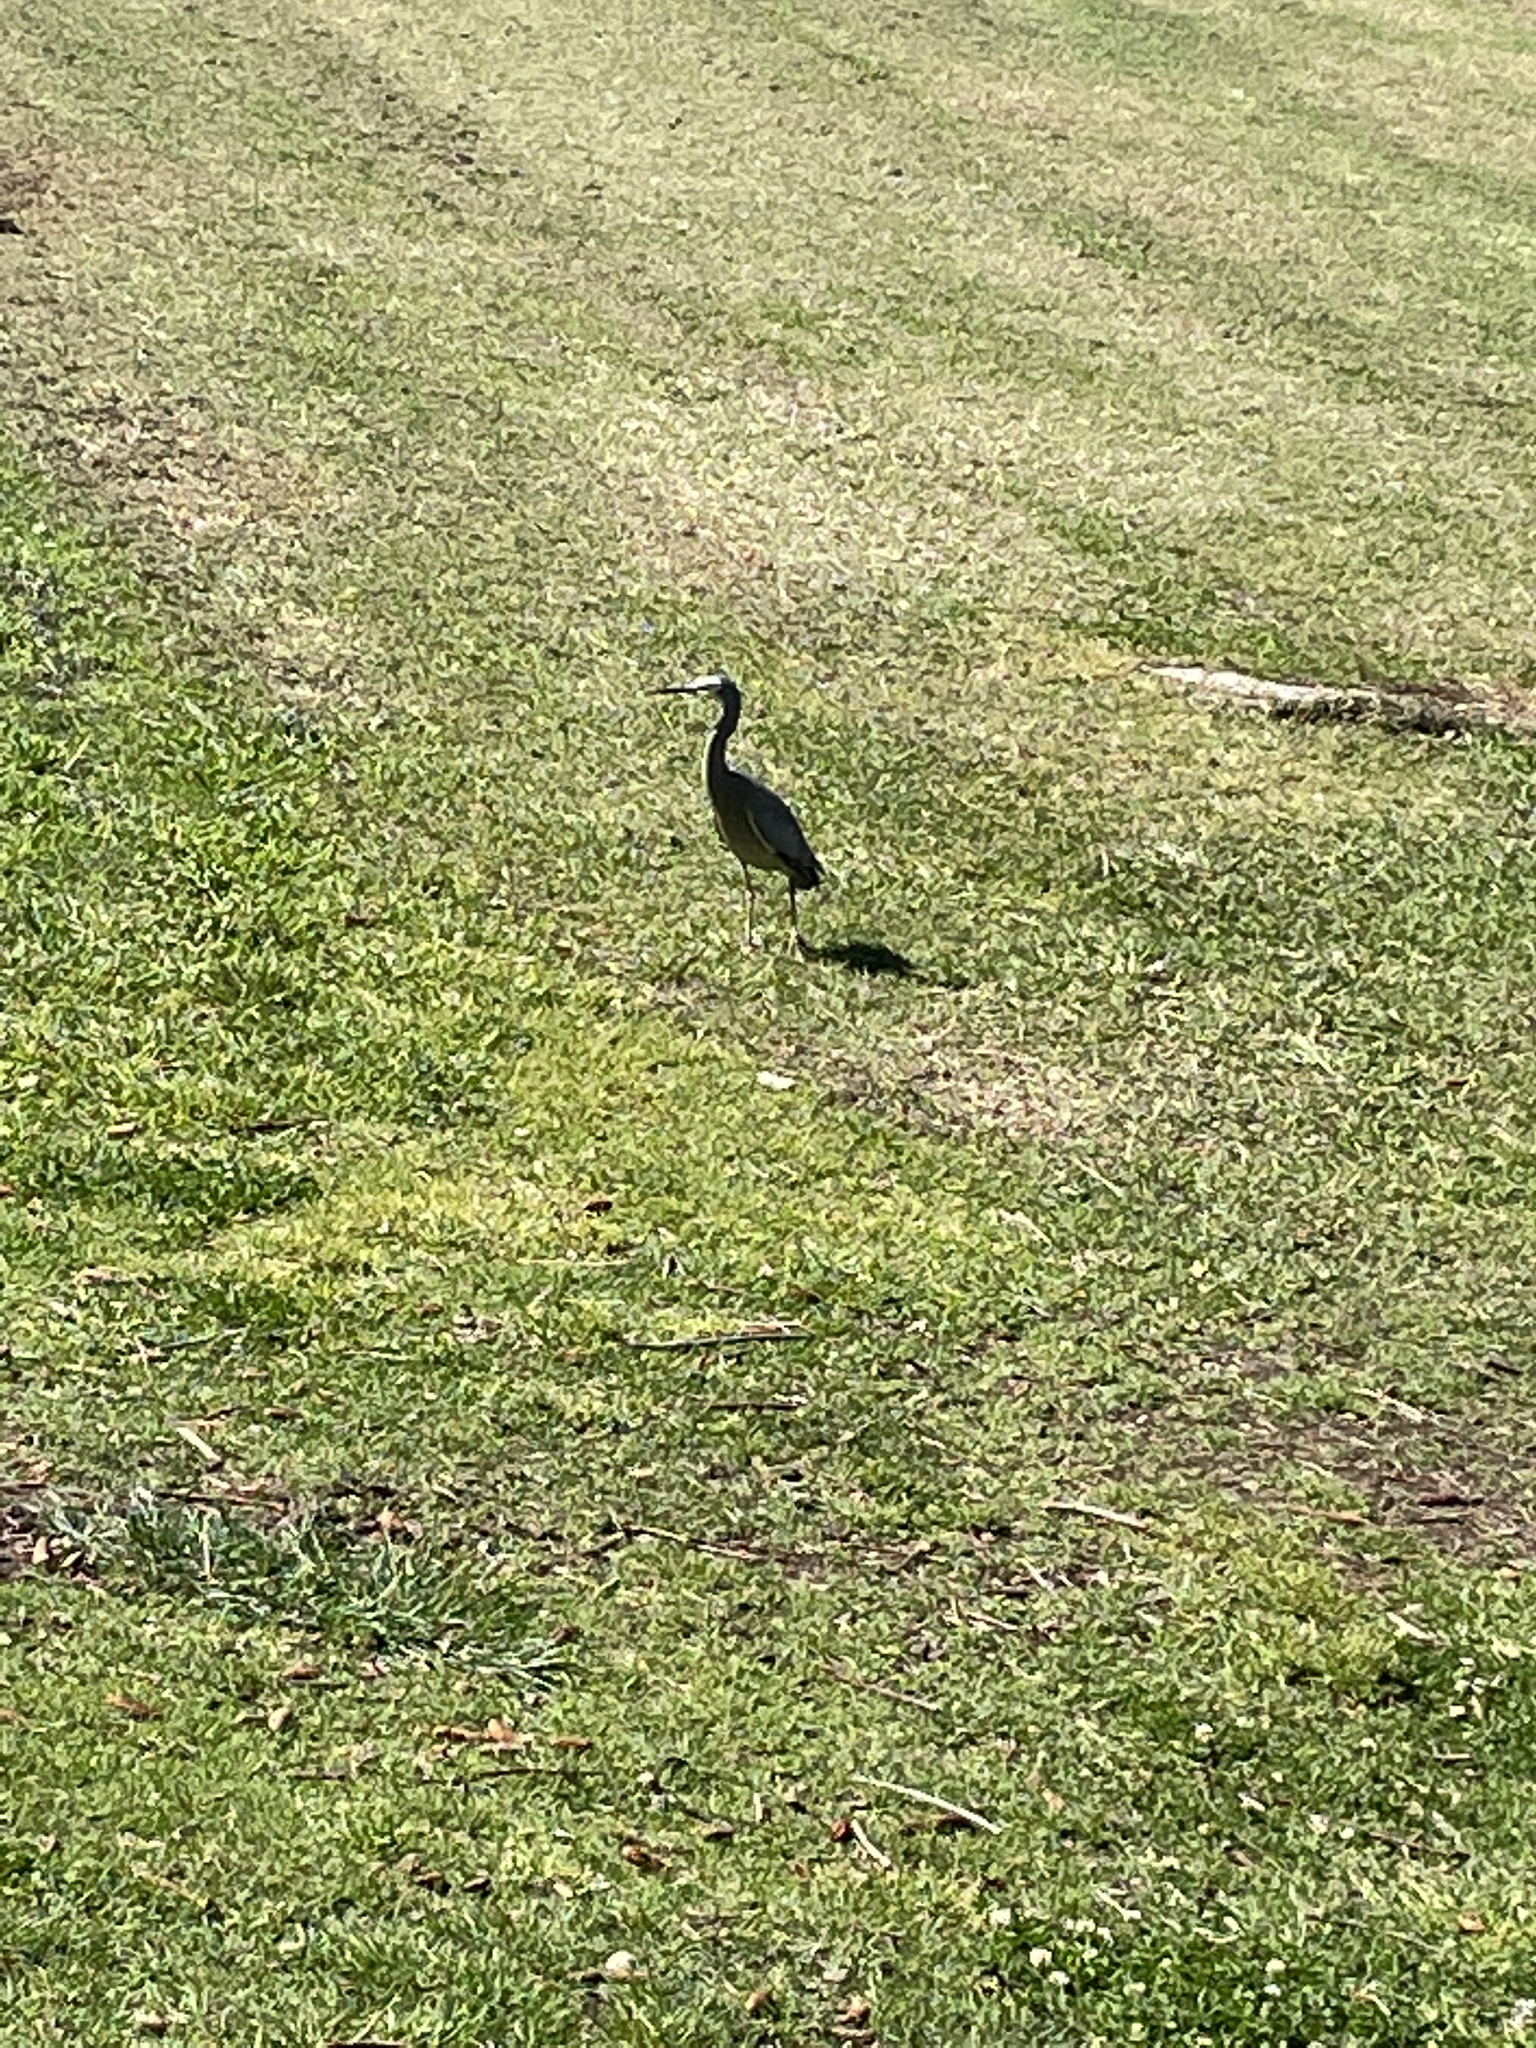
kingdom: Animalia
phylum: Chordata
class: Aves
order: Pelecaniformes
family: Ardeidae
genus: Egretta
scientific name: Egretta novaehollandiae
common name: White-faced heron
